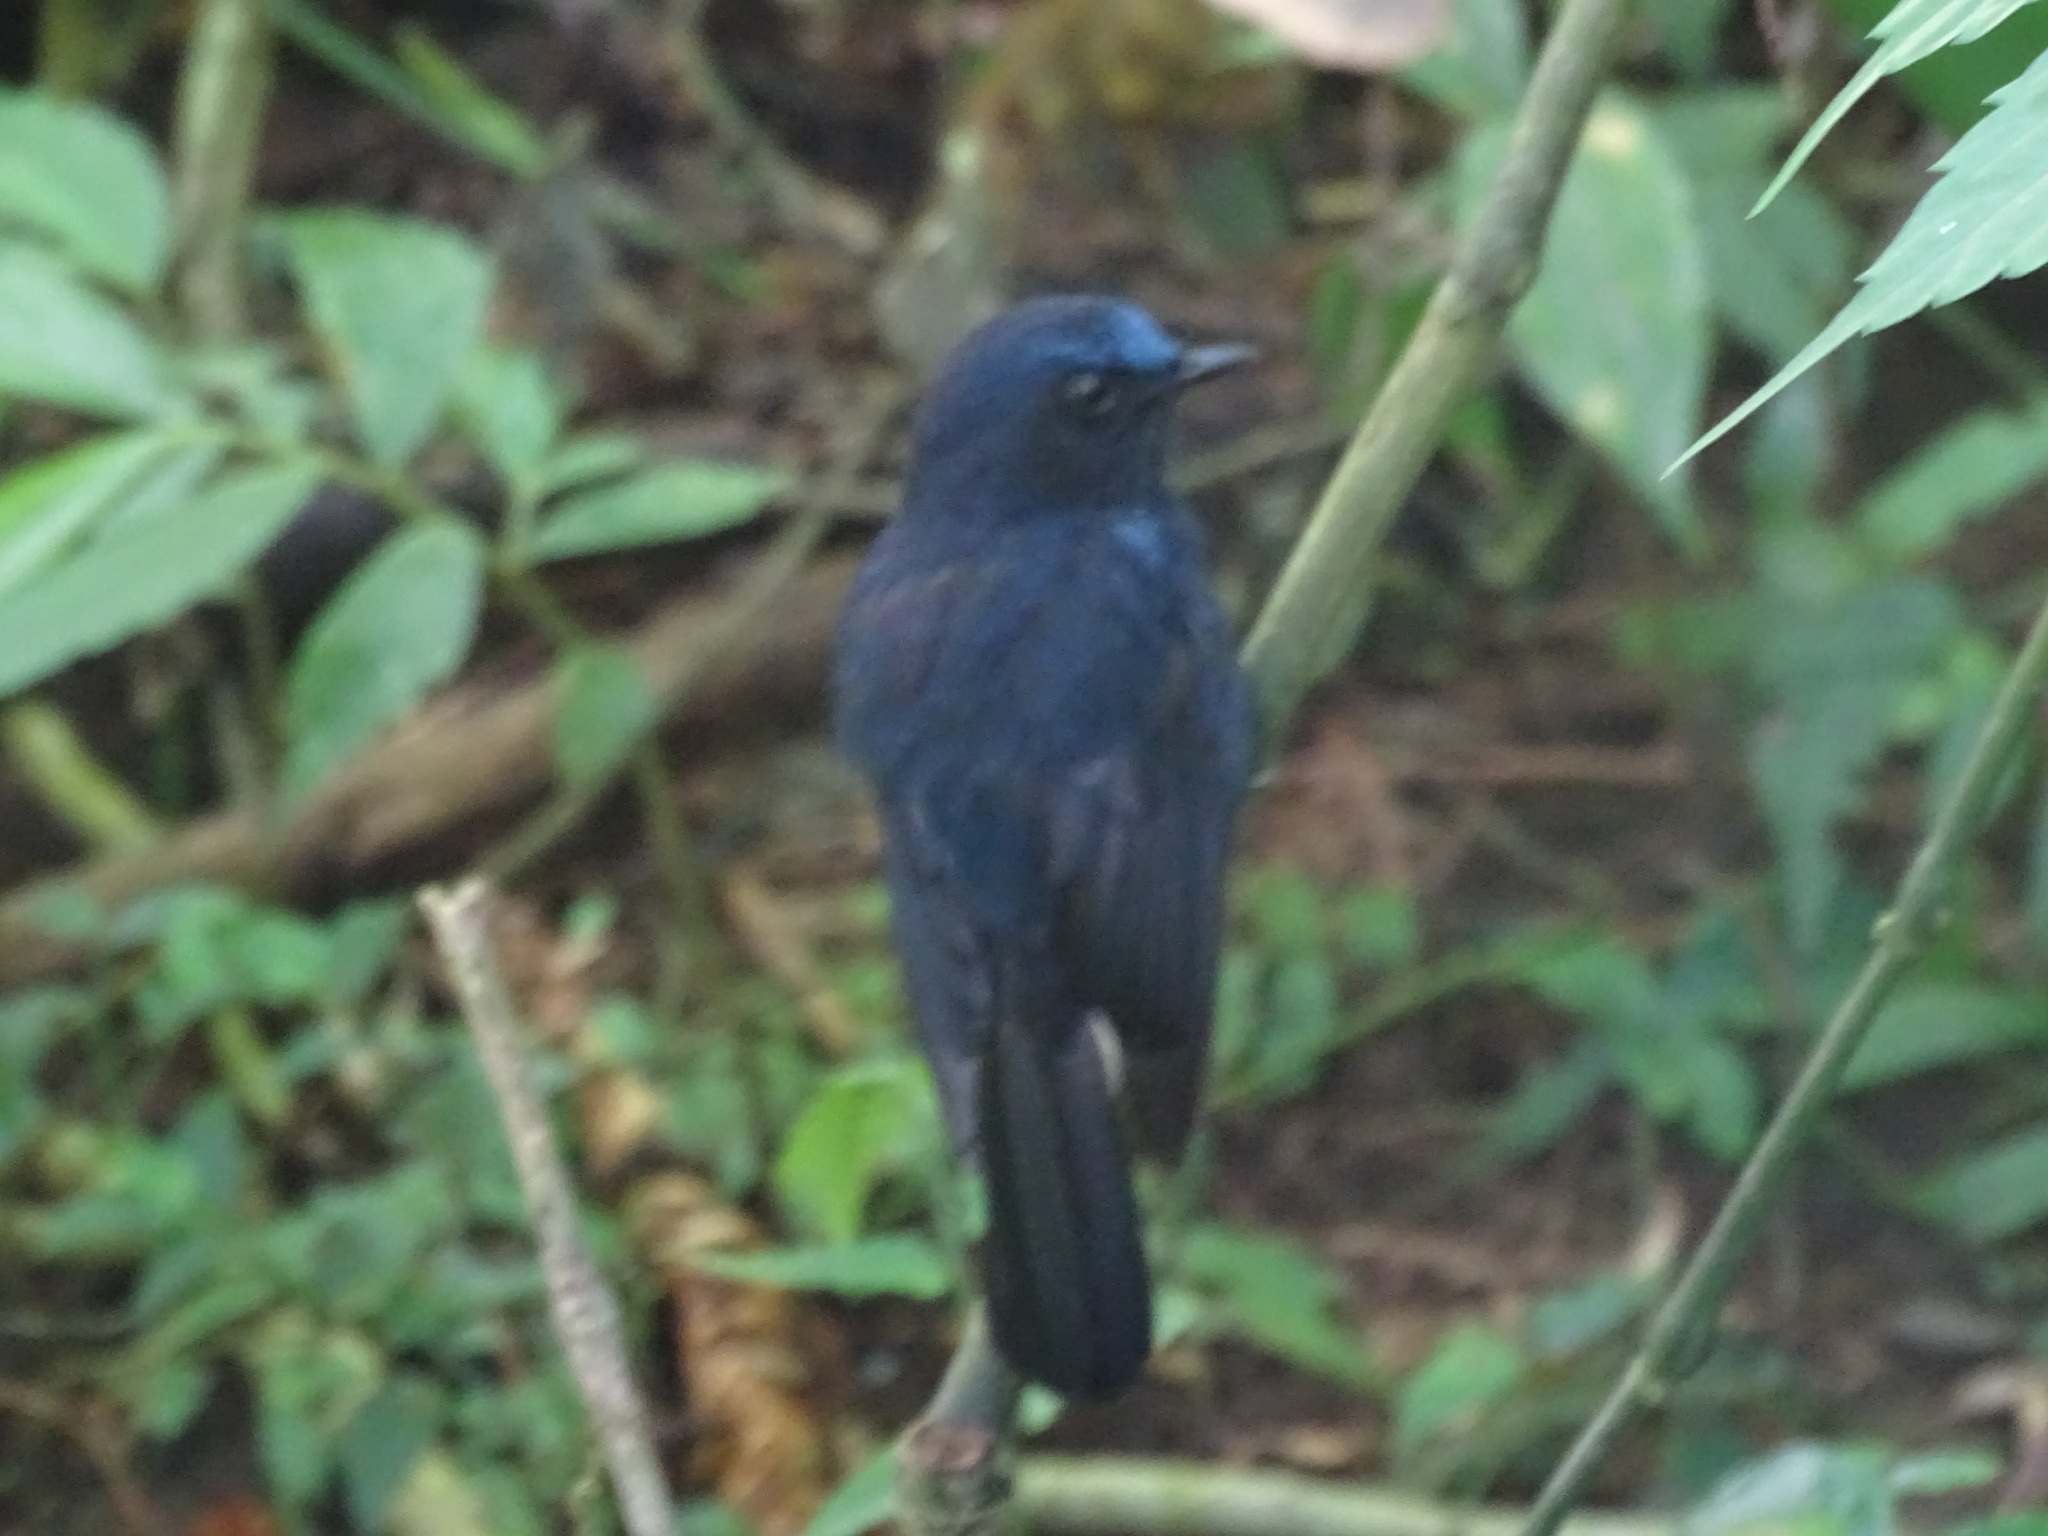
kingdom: Animalia
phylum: Chordata
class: Aves
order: Passeriformes
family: Muscicapidae
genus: Myiomela
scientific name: Myiomela leucura
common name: White-tailed robin
